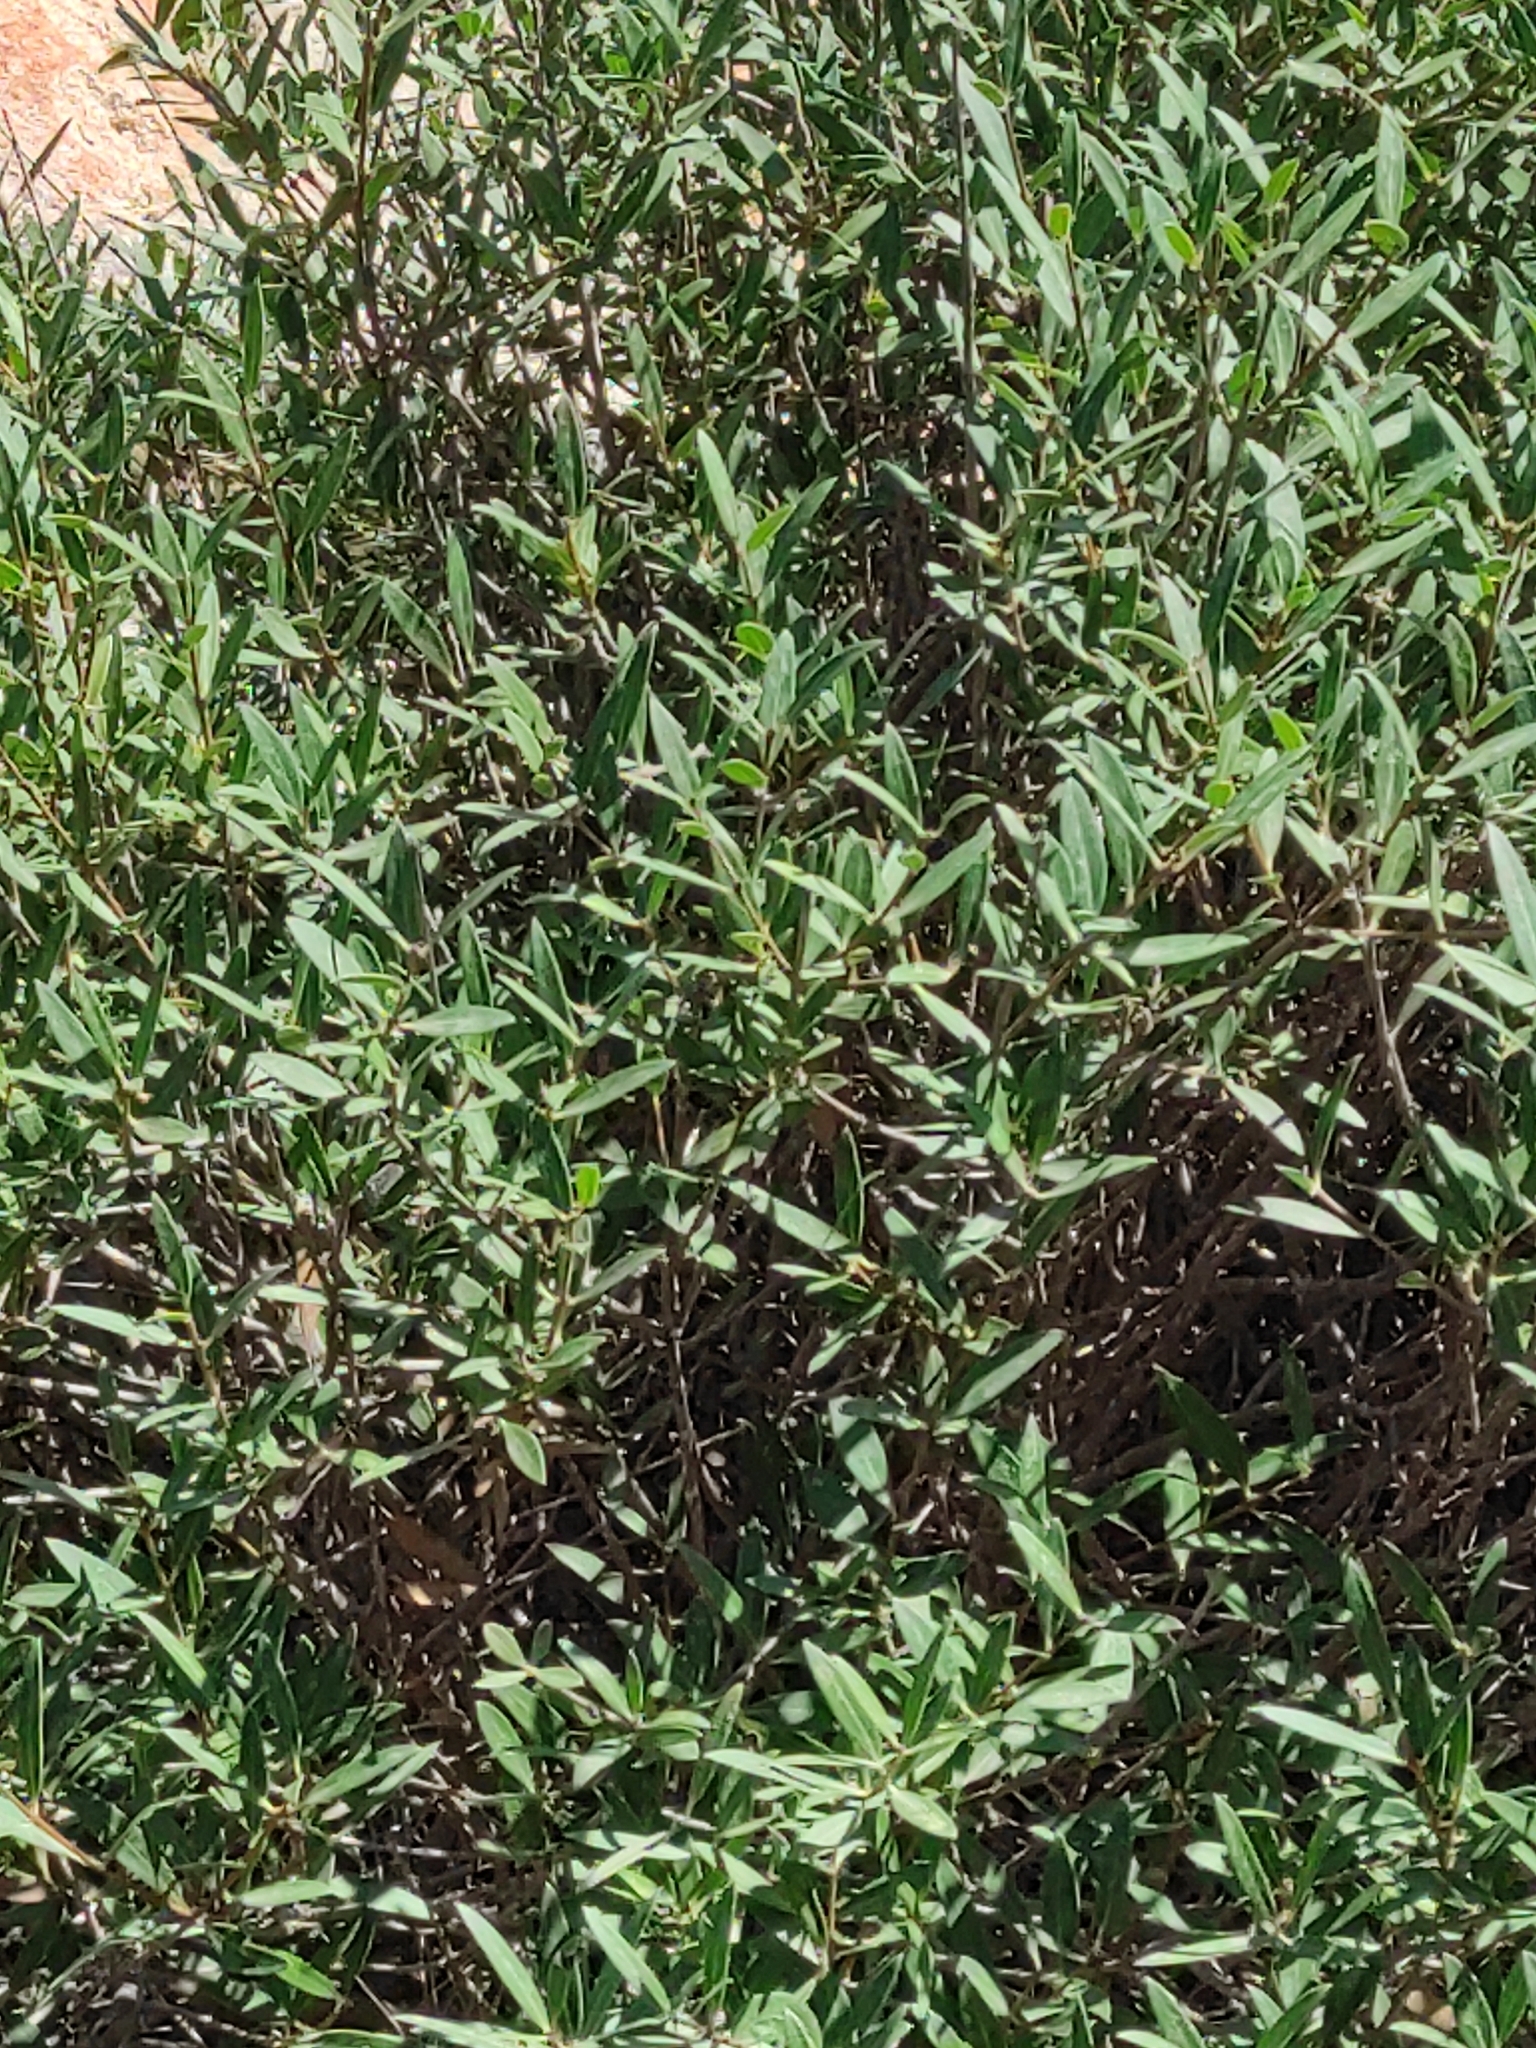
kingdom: Plantae
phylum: Tracheophyta
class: Magnoliopsida
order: Lamiales
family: Oleaceae
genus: Phillyrea
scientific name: Phillyrea angustifolia
